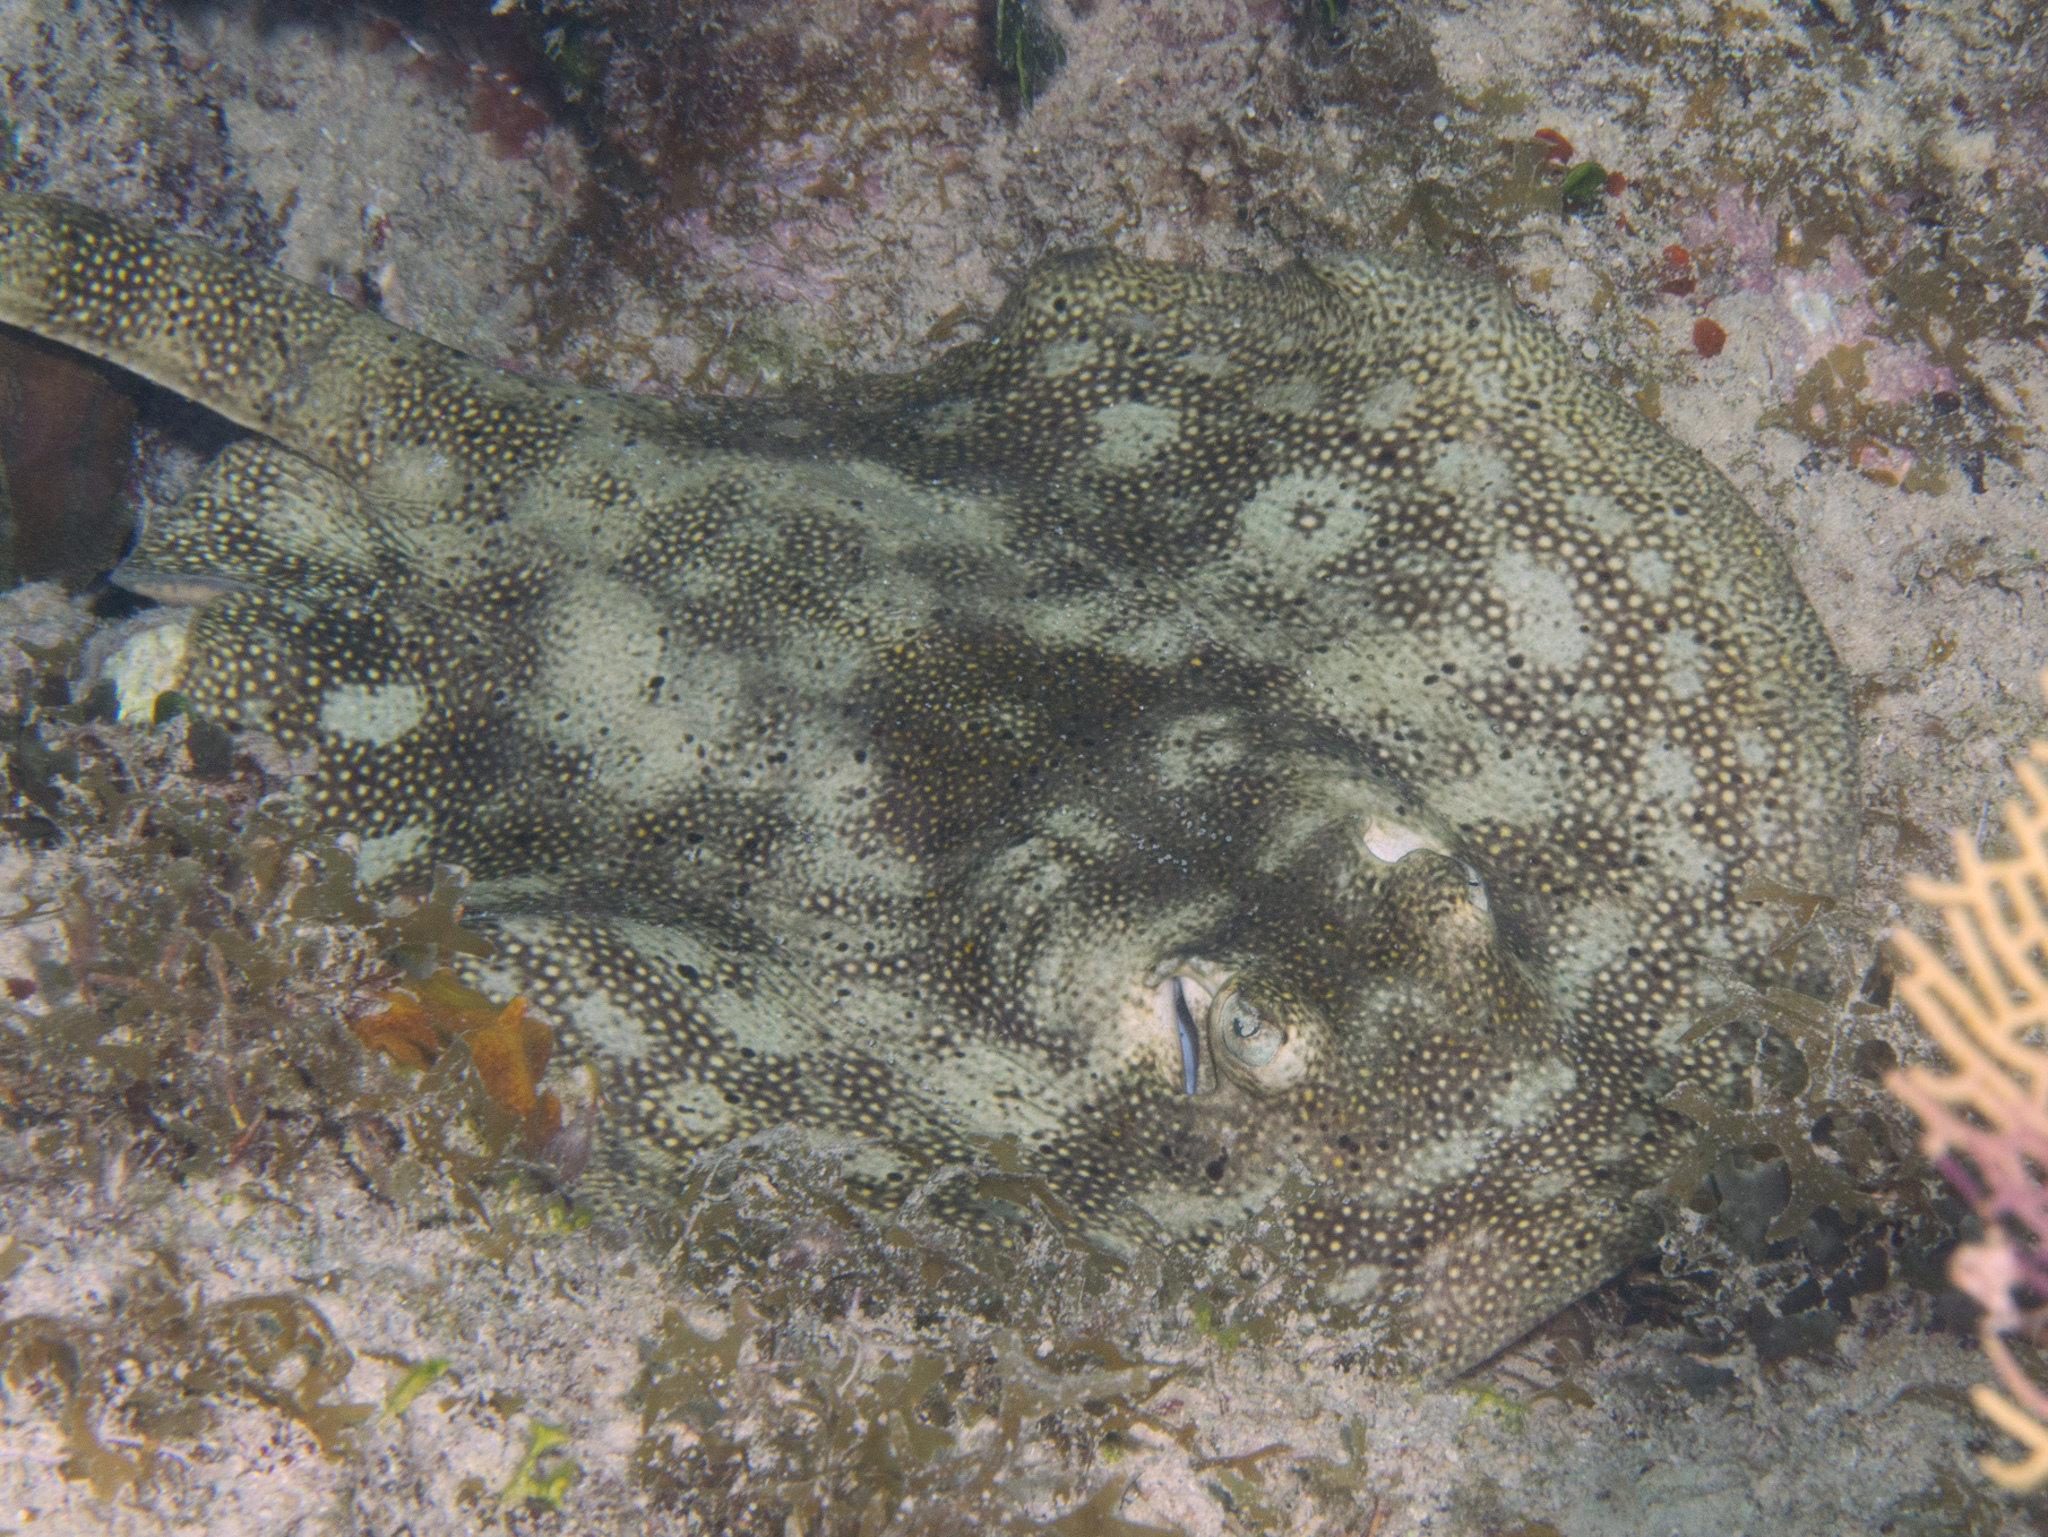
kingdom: Animalia
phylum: Chordata
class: Elasmobranchii
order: Myliobatiformes
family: Urotrygonidae
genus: Urobatis
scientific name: Urobatis jamaicensis
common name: Yellow stingray
